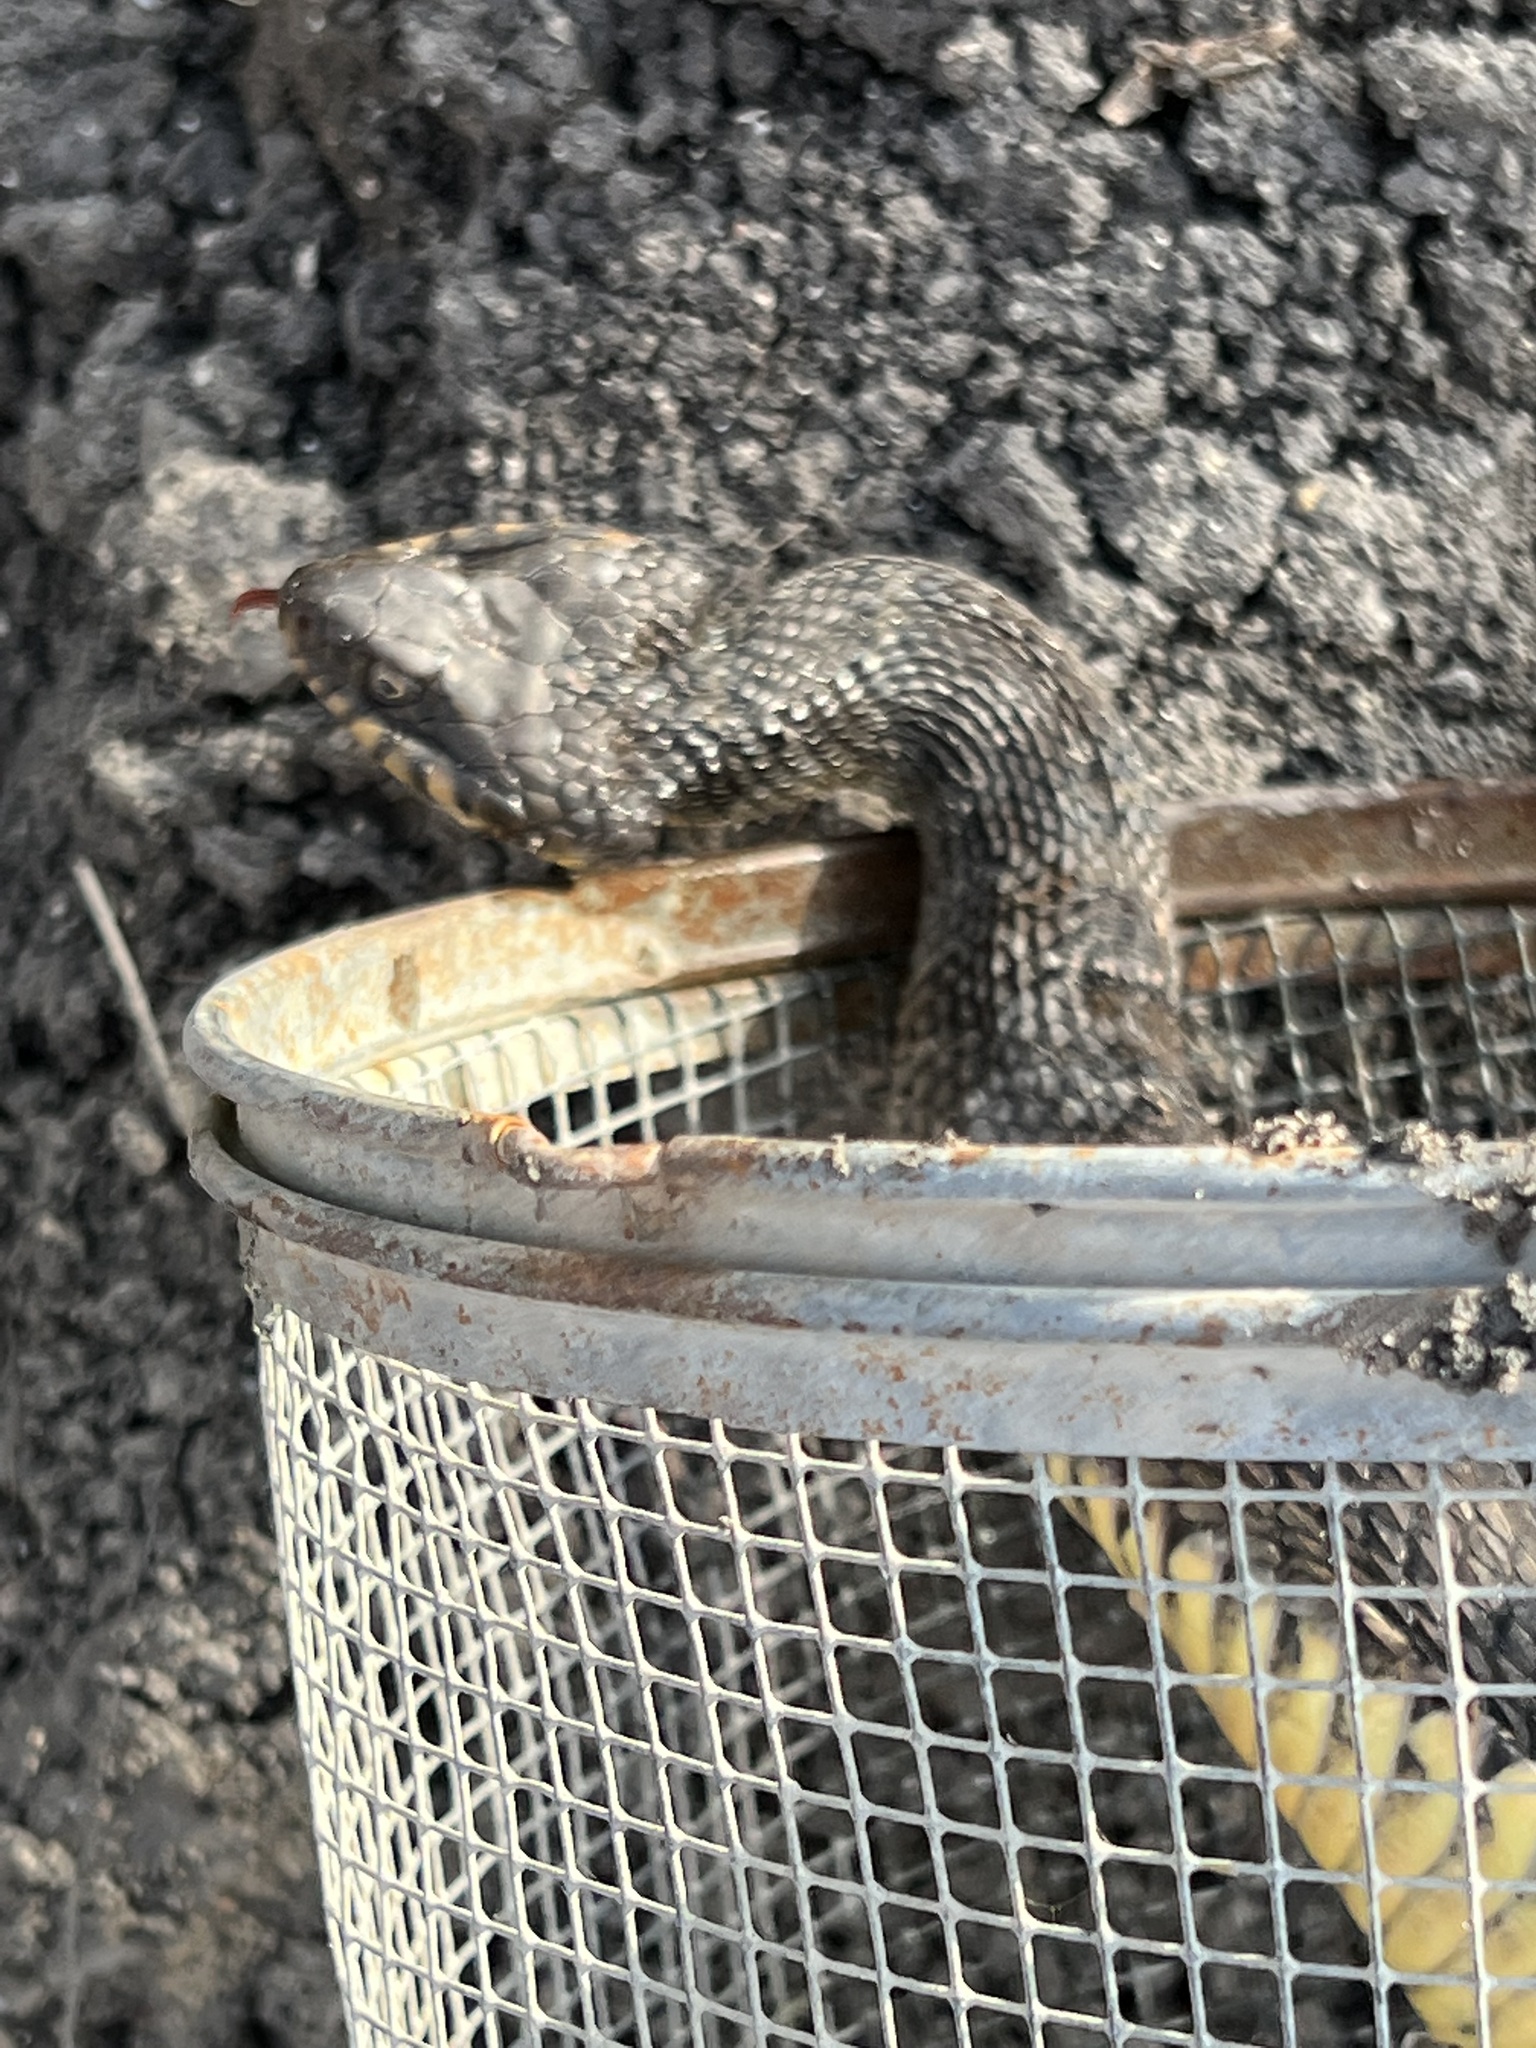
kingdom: Animalia
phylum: Chordata
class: Squamata
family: Colubridae
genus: Nerodia
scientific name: Nerodia erythrogaster
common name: Plainbelly water snake
